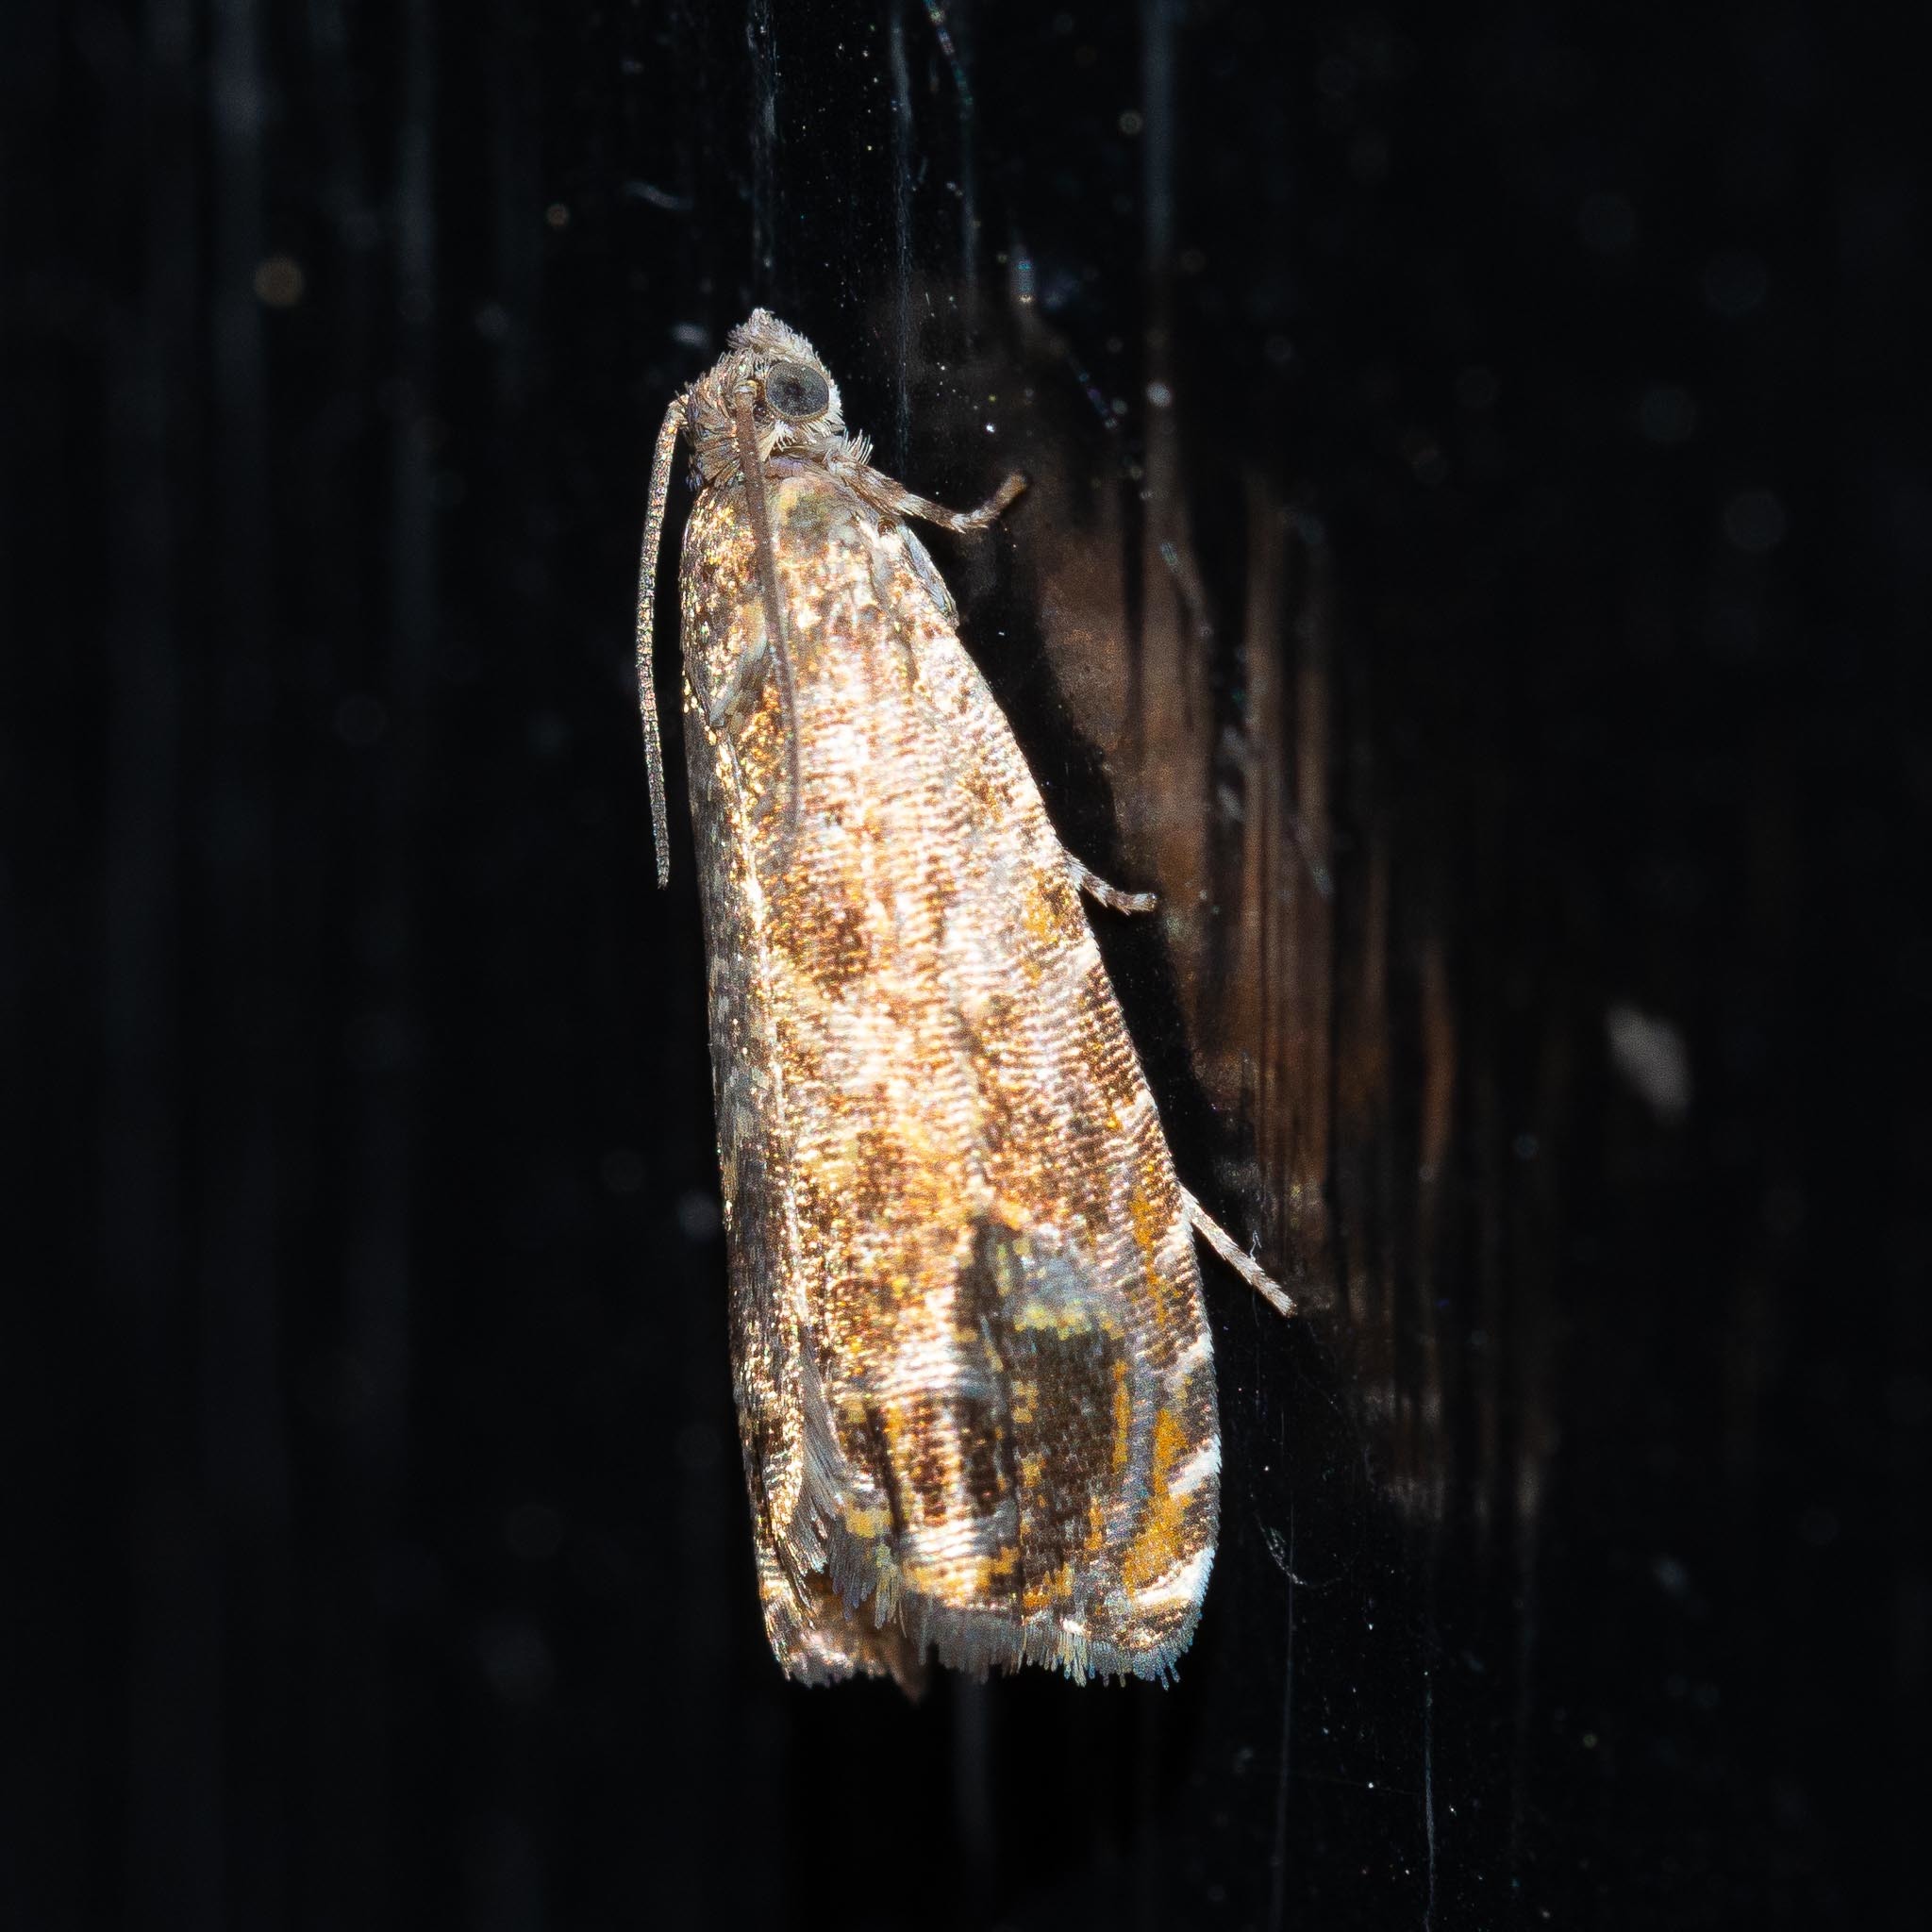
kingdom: Animalia
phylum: Arthropoda
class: Insecta
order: Lepidoptera
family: Tortricidae
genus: Dichrorampha
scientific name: Dichrorampha plumbana
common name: Lead-coloured drill
